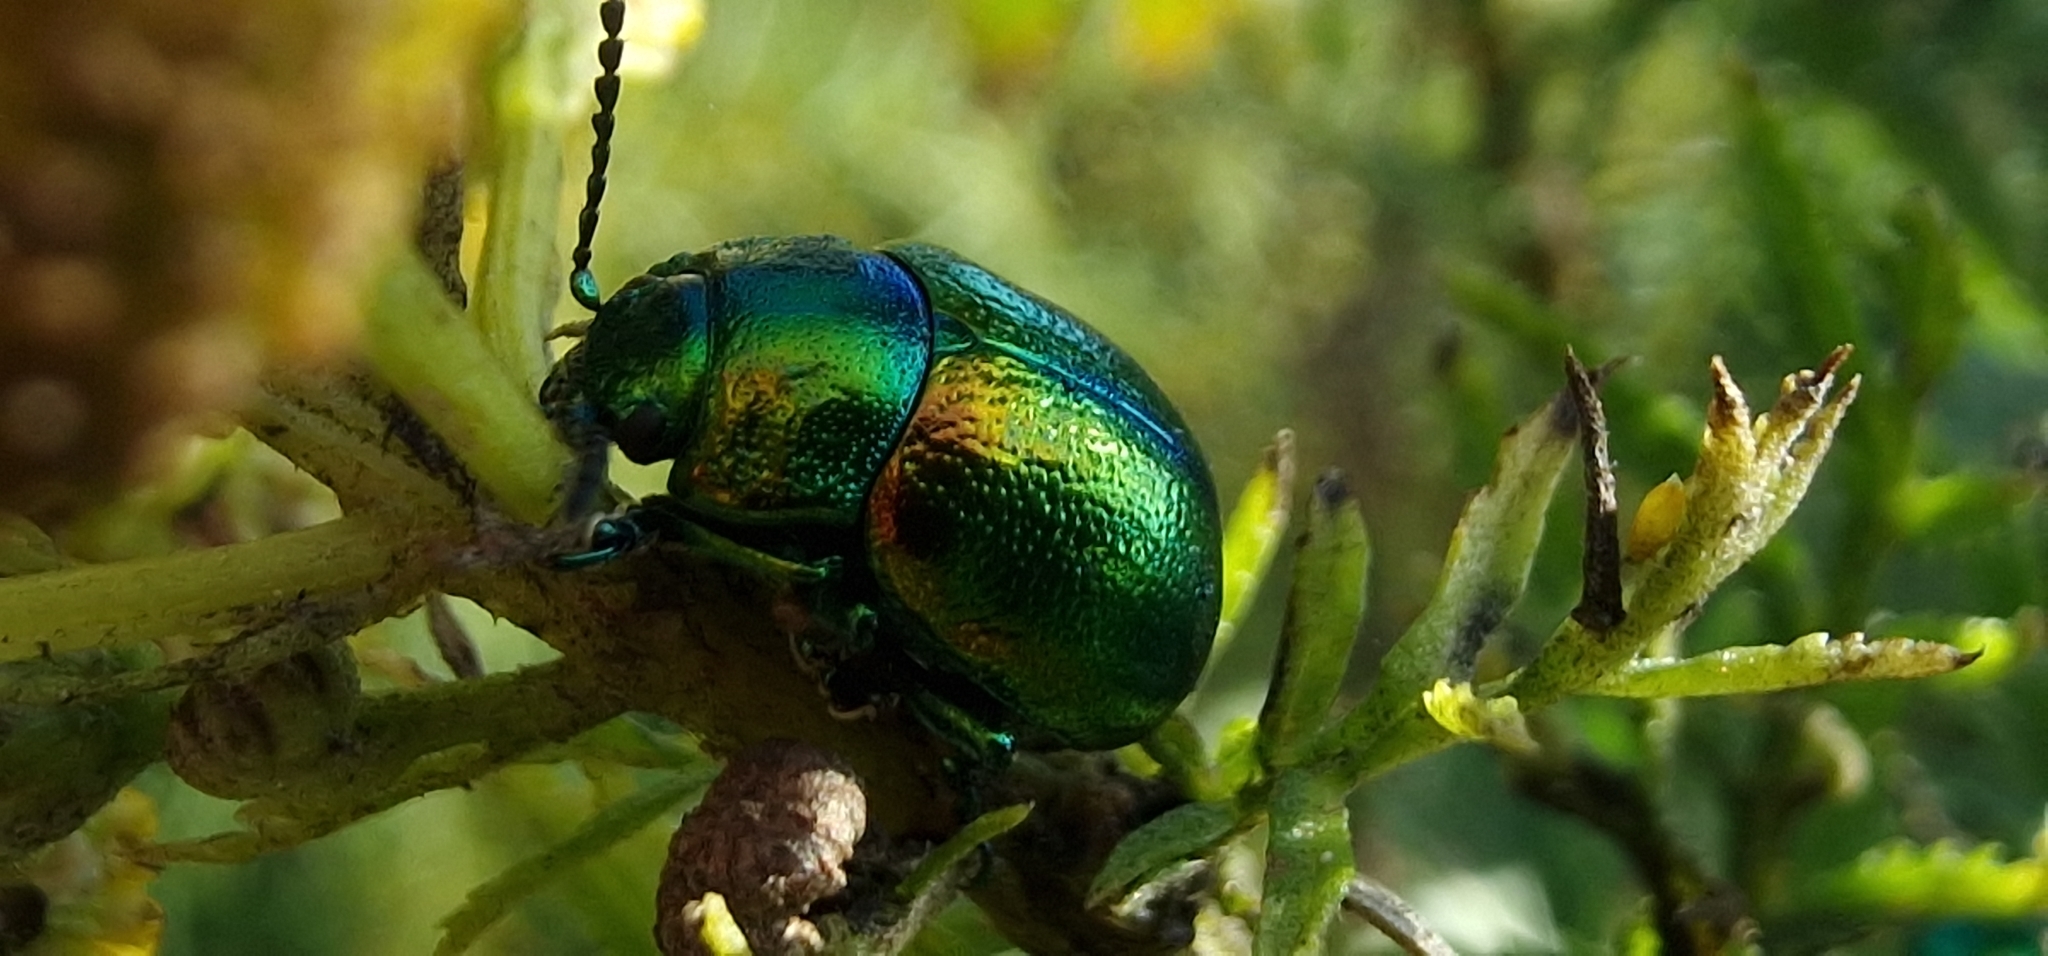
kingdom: Animalia
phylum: Arthropoda
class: Insecta
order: Coleoptera
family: Chrysomelidae
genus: Chrysolina
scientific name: Chrysolina graminis
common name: Tansey beetle
